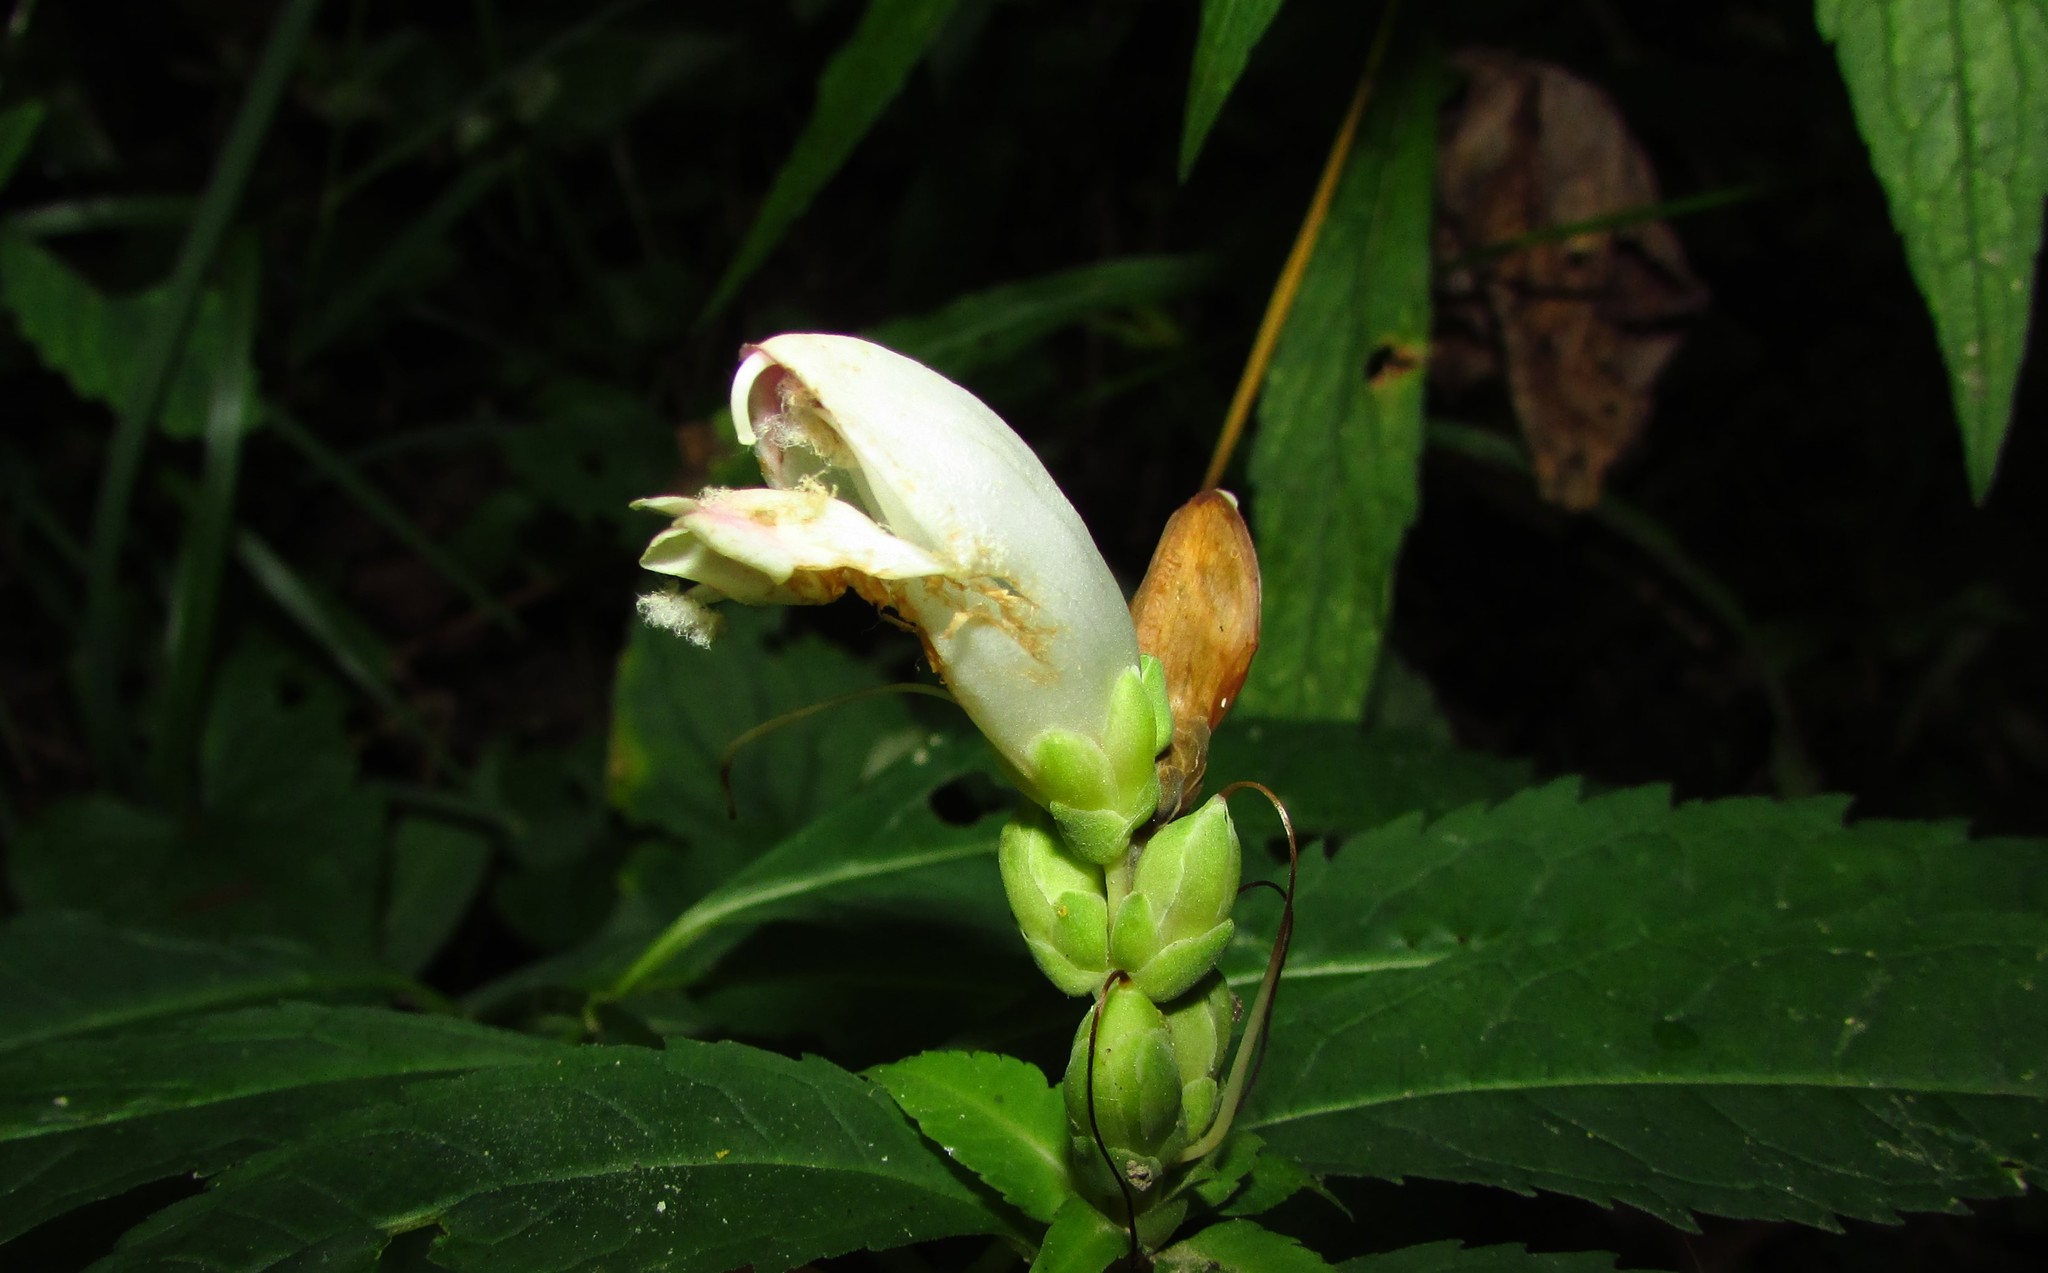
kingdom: Plantae
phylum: Tracheophyta
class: Magnoliopsida
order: Lamiales
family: Plantaginaceae
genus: Chelone
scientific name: Chelone glabra
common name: Snakehead
